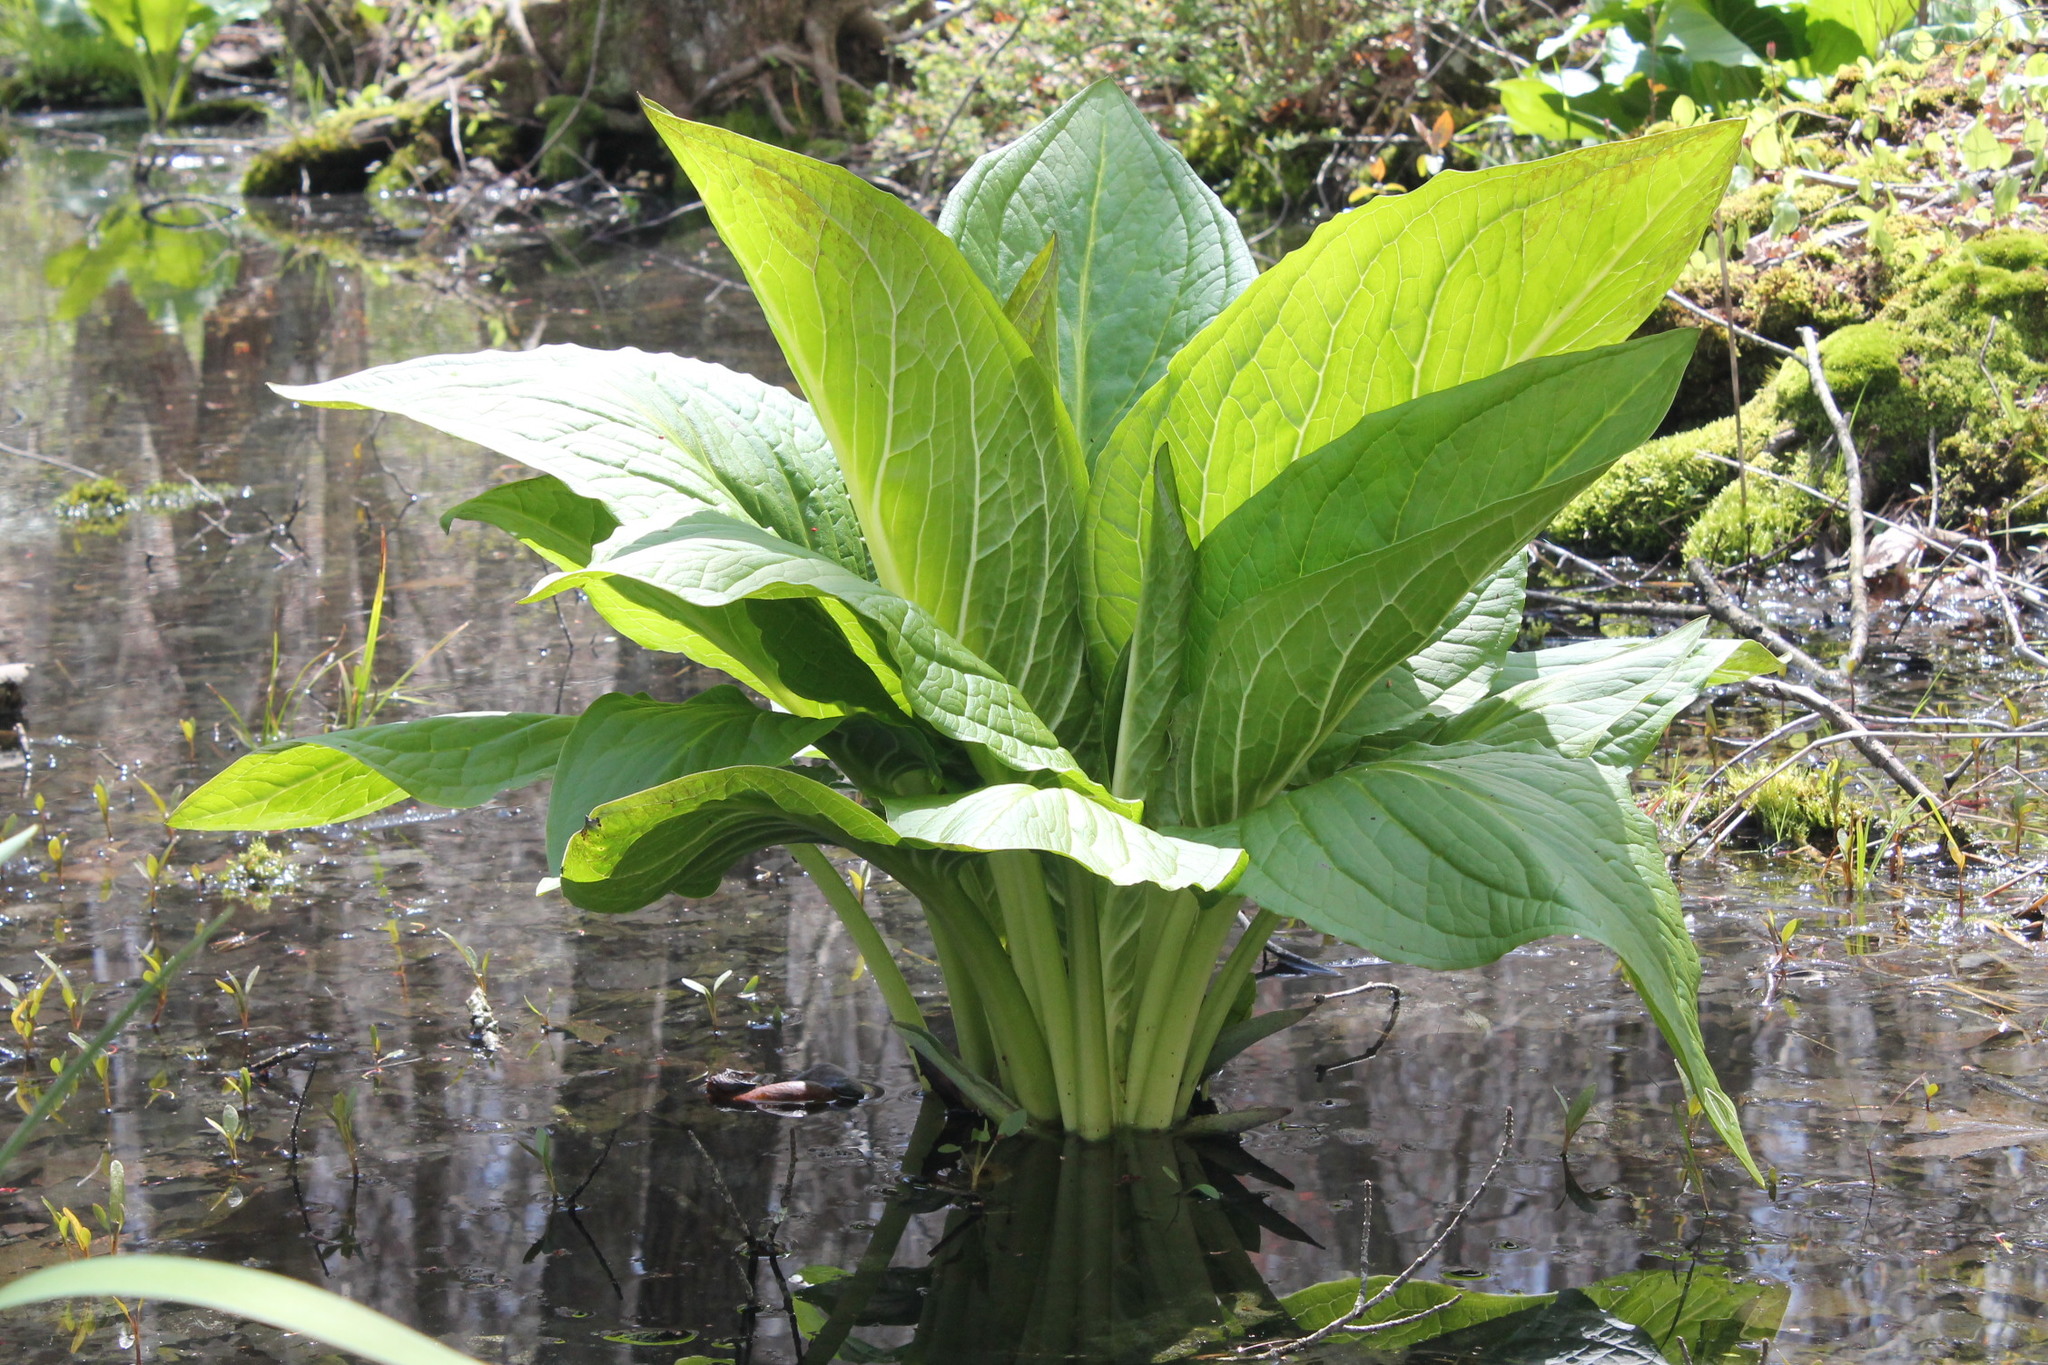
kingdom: Plantae
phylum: Tracheophyta
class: Liliopsida
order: Alismatales
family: Araceae
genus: Symplocarpus
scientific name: Symplocarpus foetidus
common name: Eastern skunk cabbage
